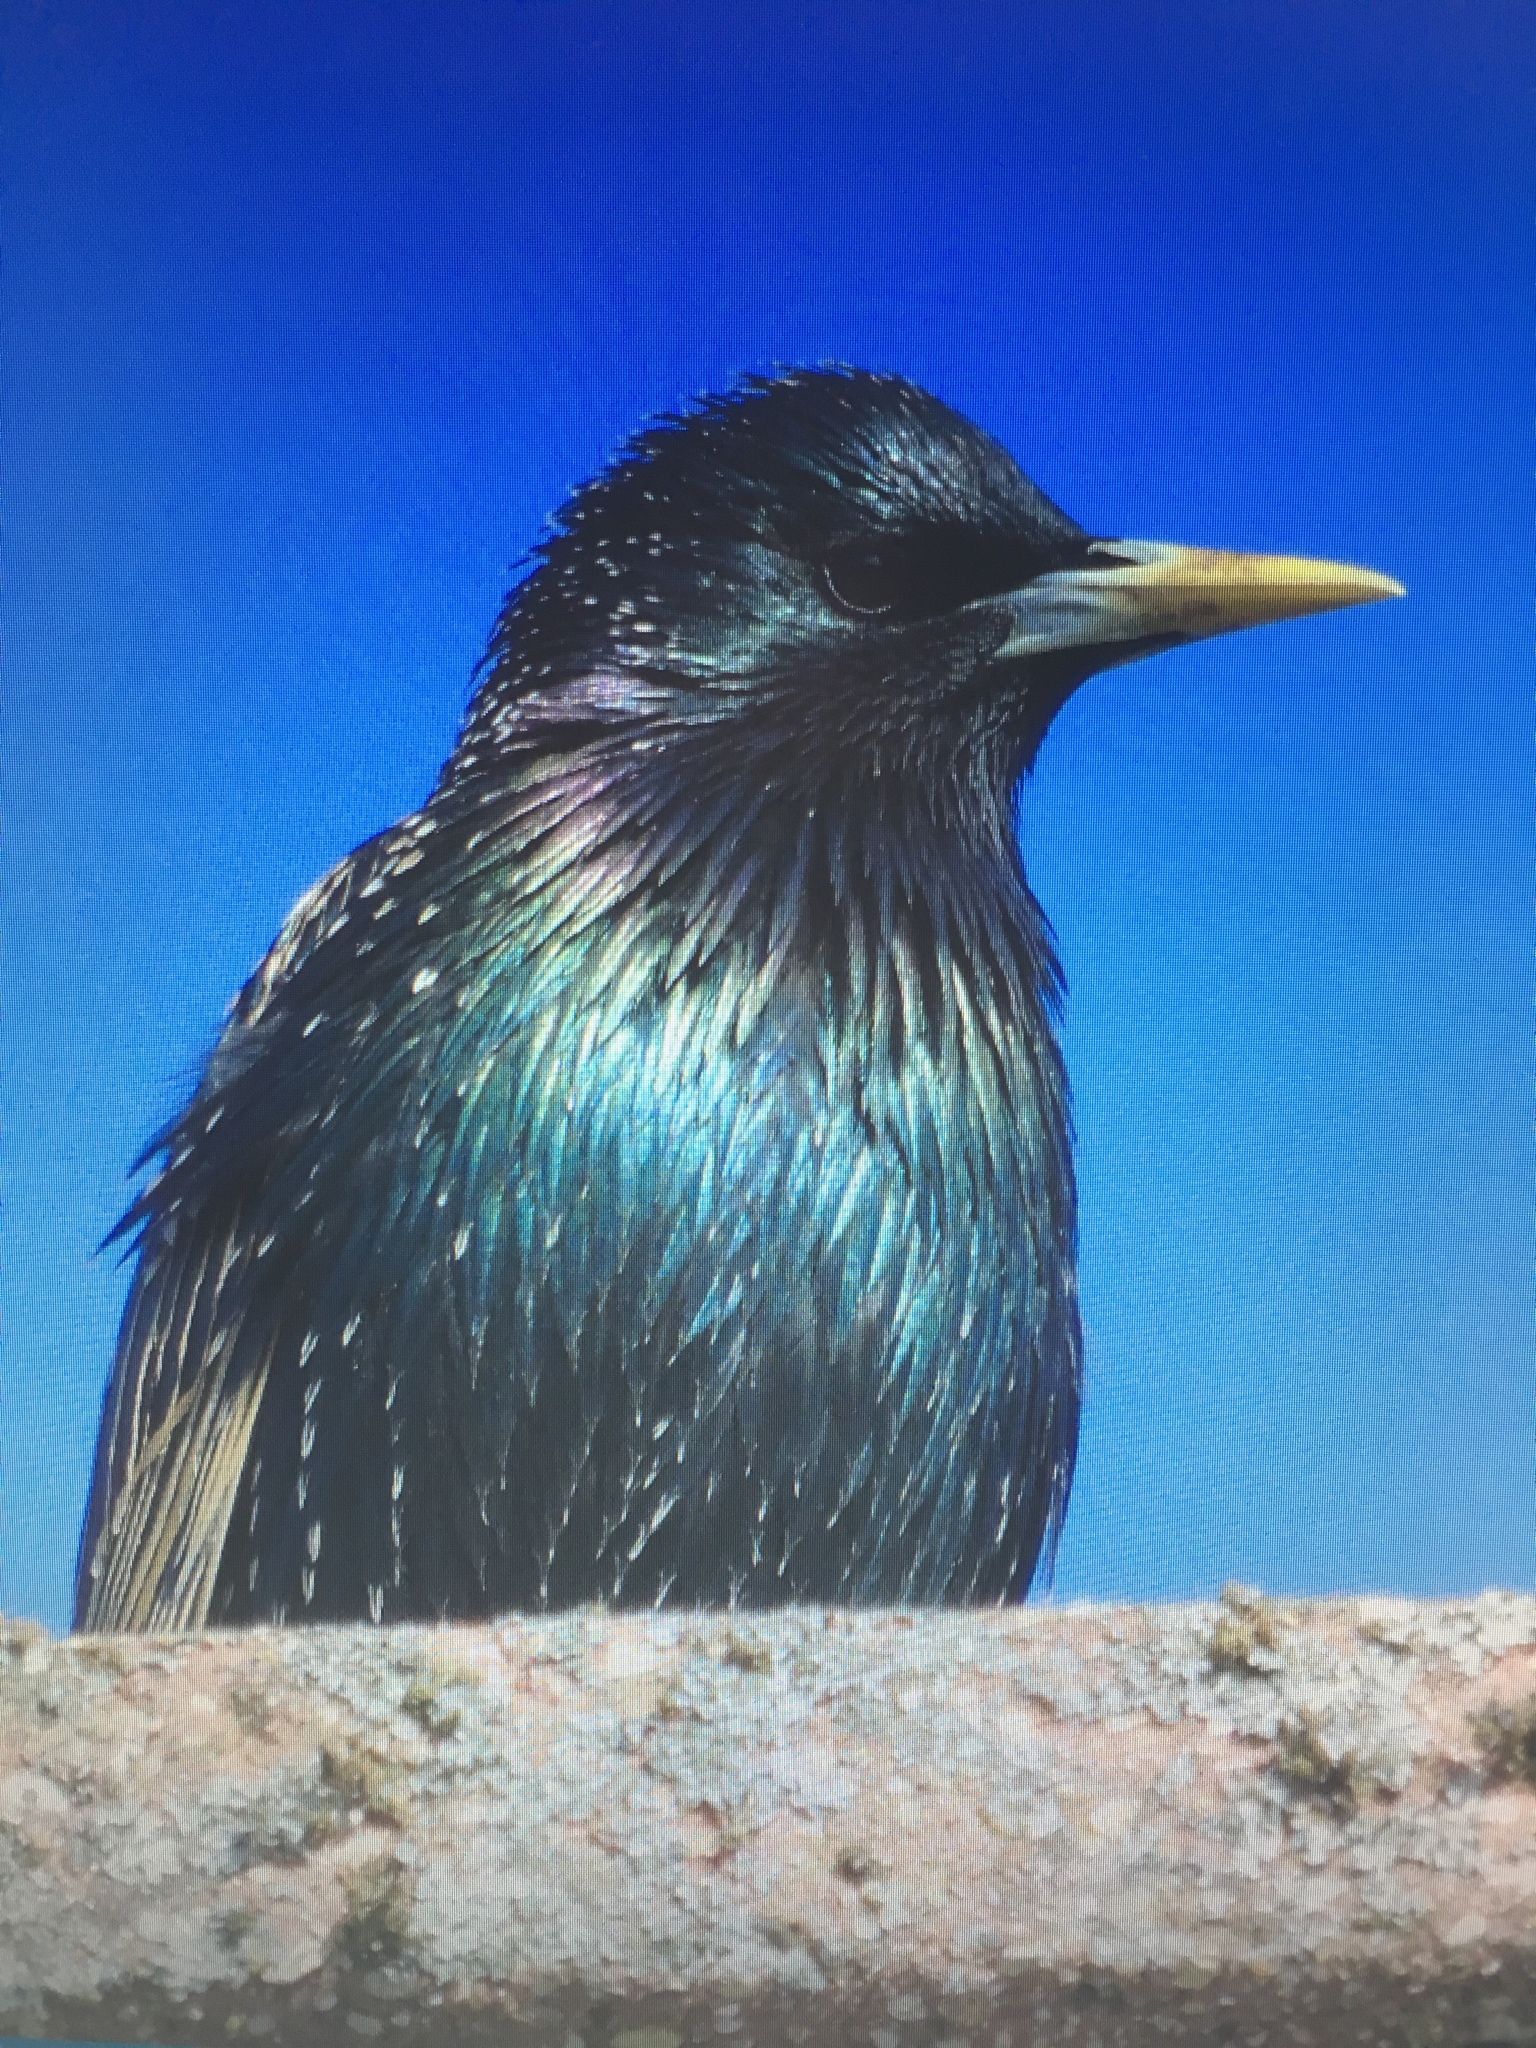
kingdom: Animalia
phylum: Chordata
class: Aves
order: Passeriformes
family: Sturnidae
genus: Sturnus
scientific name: Sturnus vulgaris
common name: Common starling
